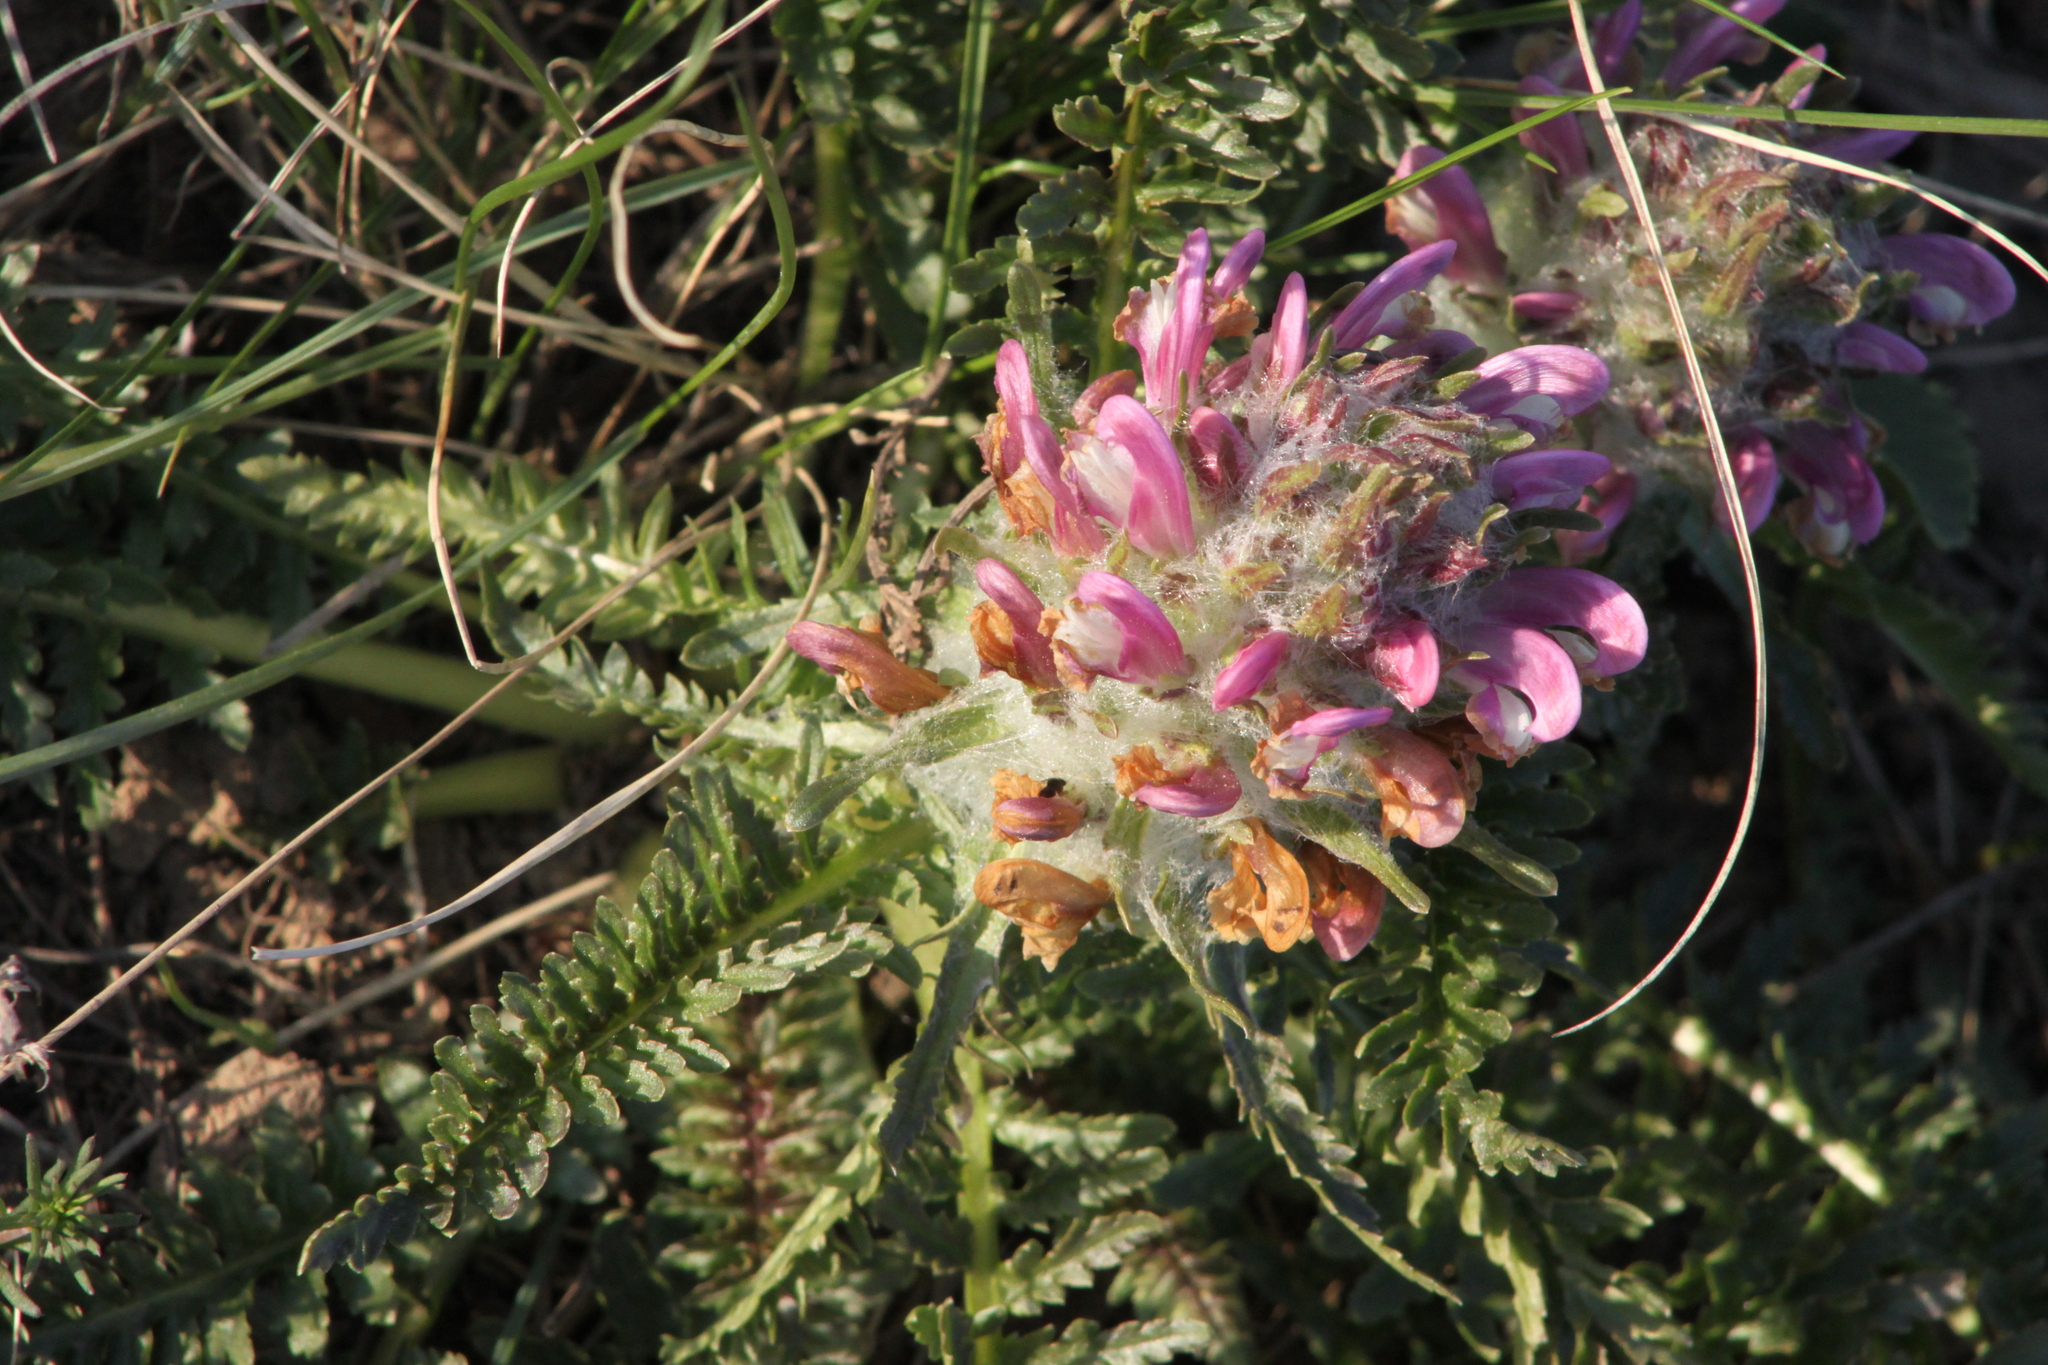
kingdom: Plantae
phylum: Tracheophyta
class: Magnoliopsida
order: Lamiales
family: Orobanchaceae
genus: Pedicularis
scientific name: Pedicularis dasystachys
